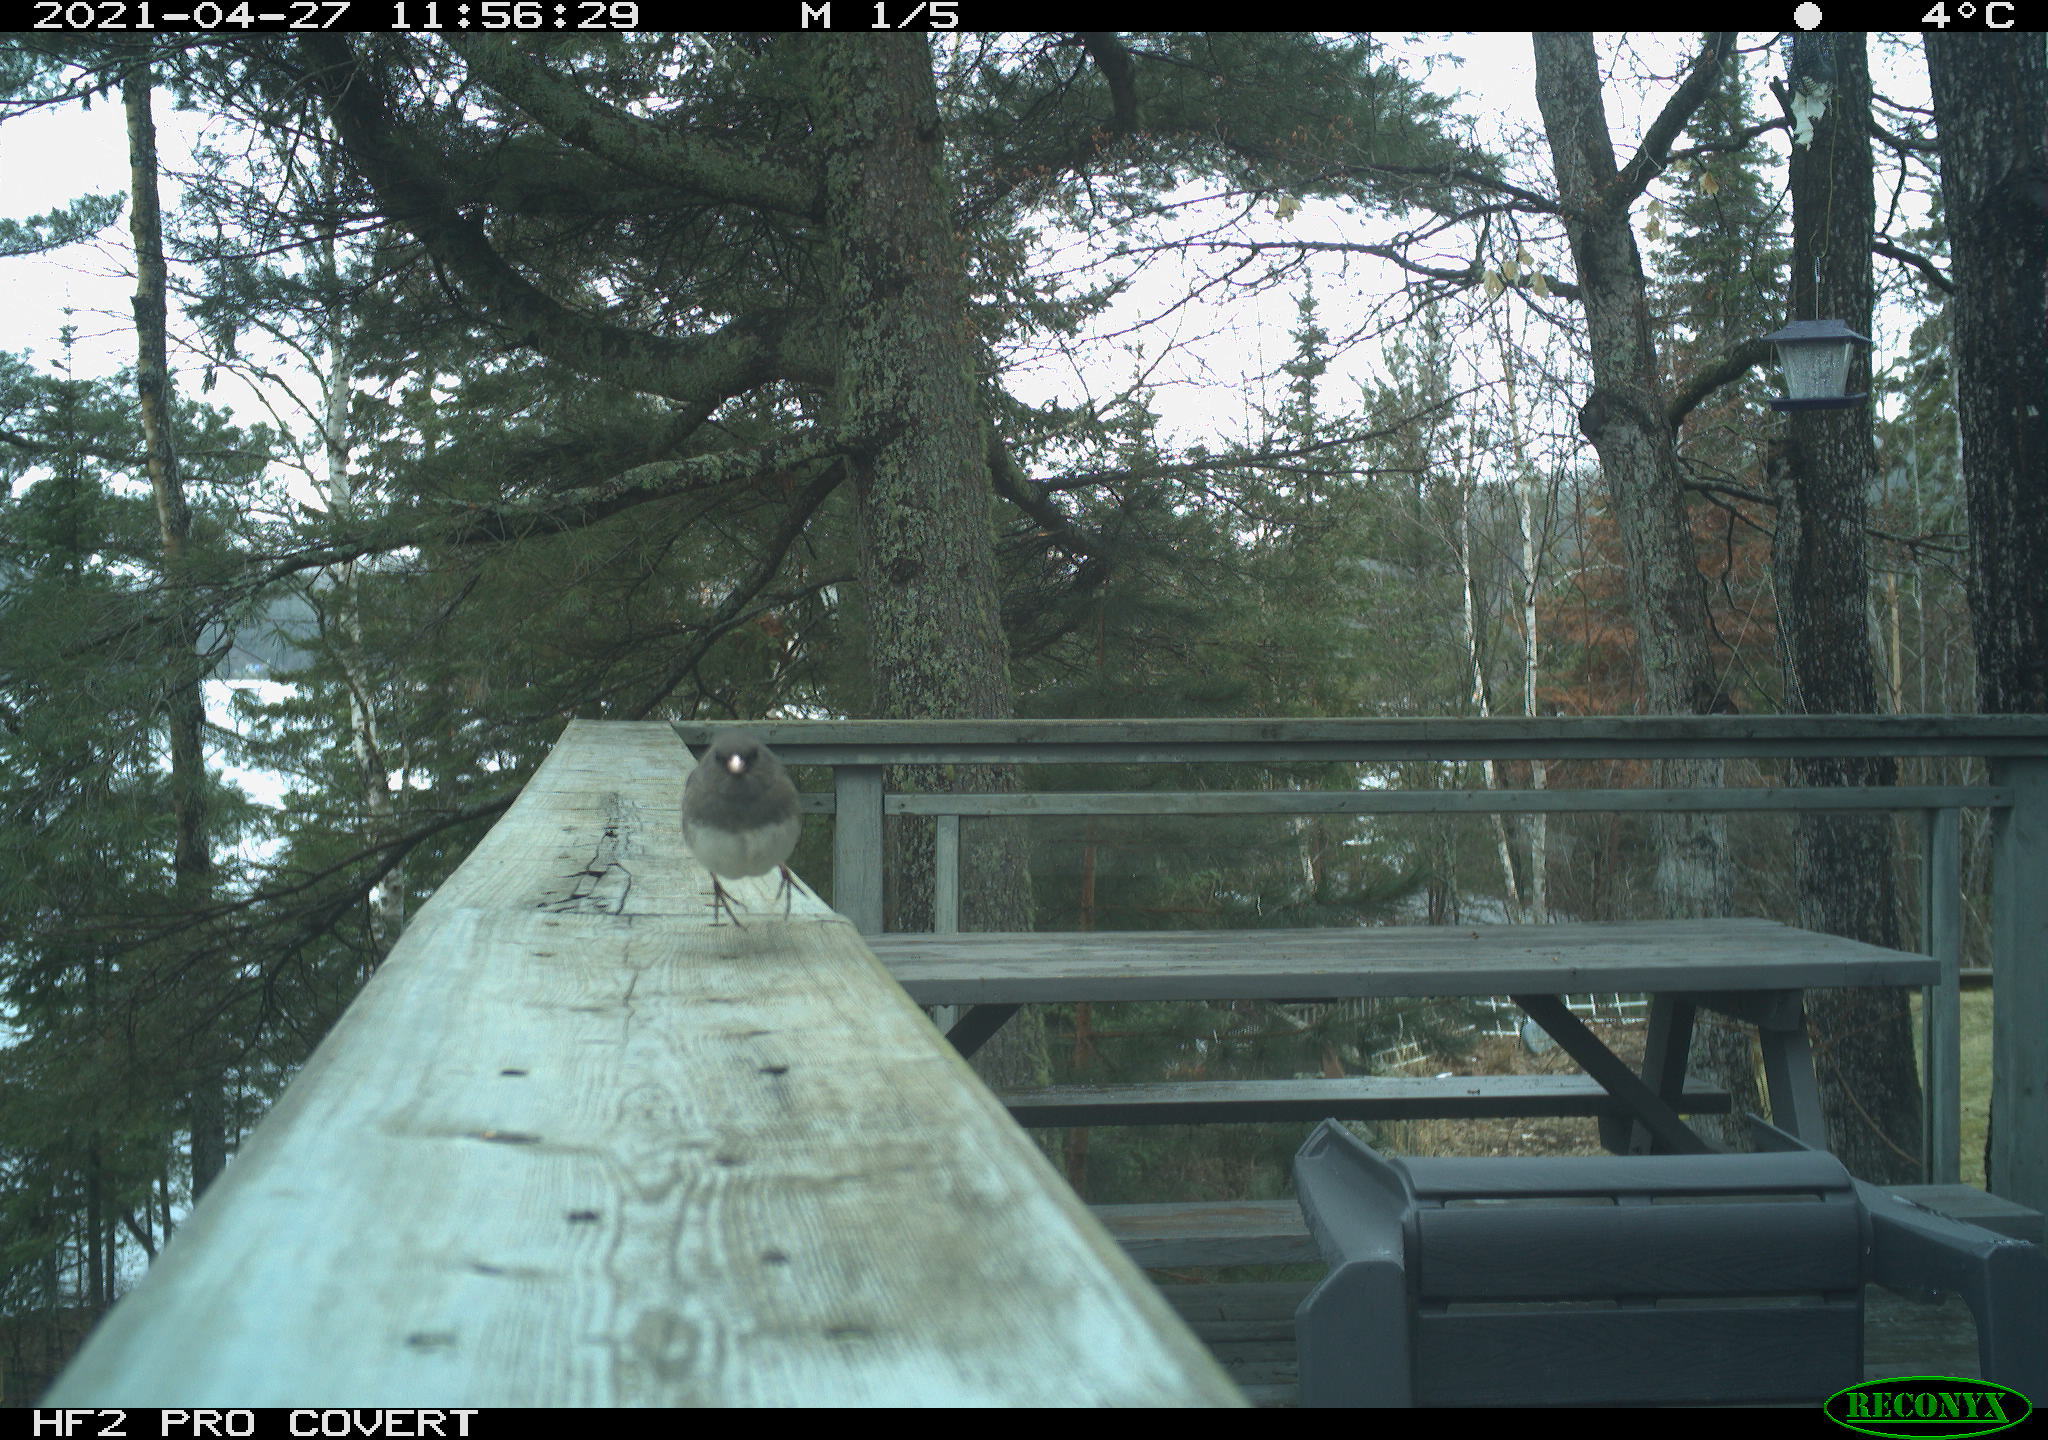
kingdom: Animalia
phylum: Chordata
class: Aves
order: Passeriformes
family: Passerellidae
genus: Junco
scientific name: Junco hyemalis
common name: Dark-eyed junco
